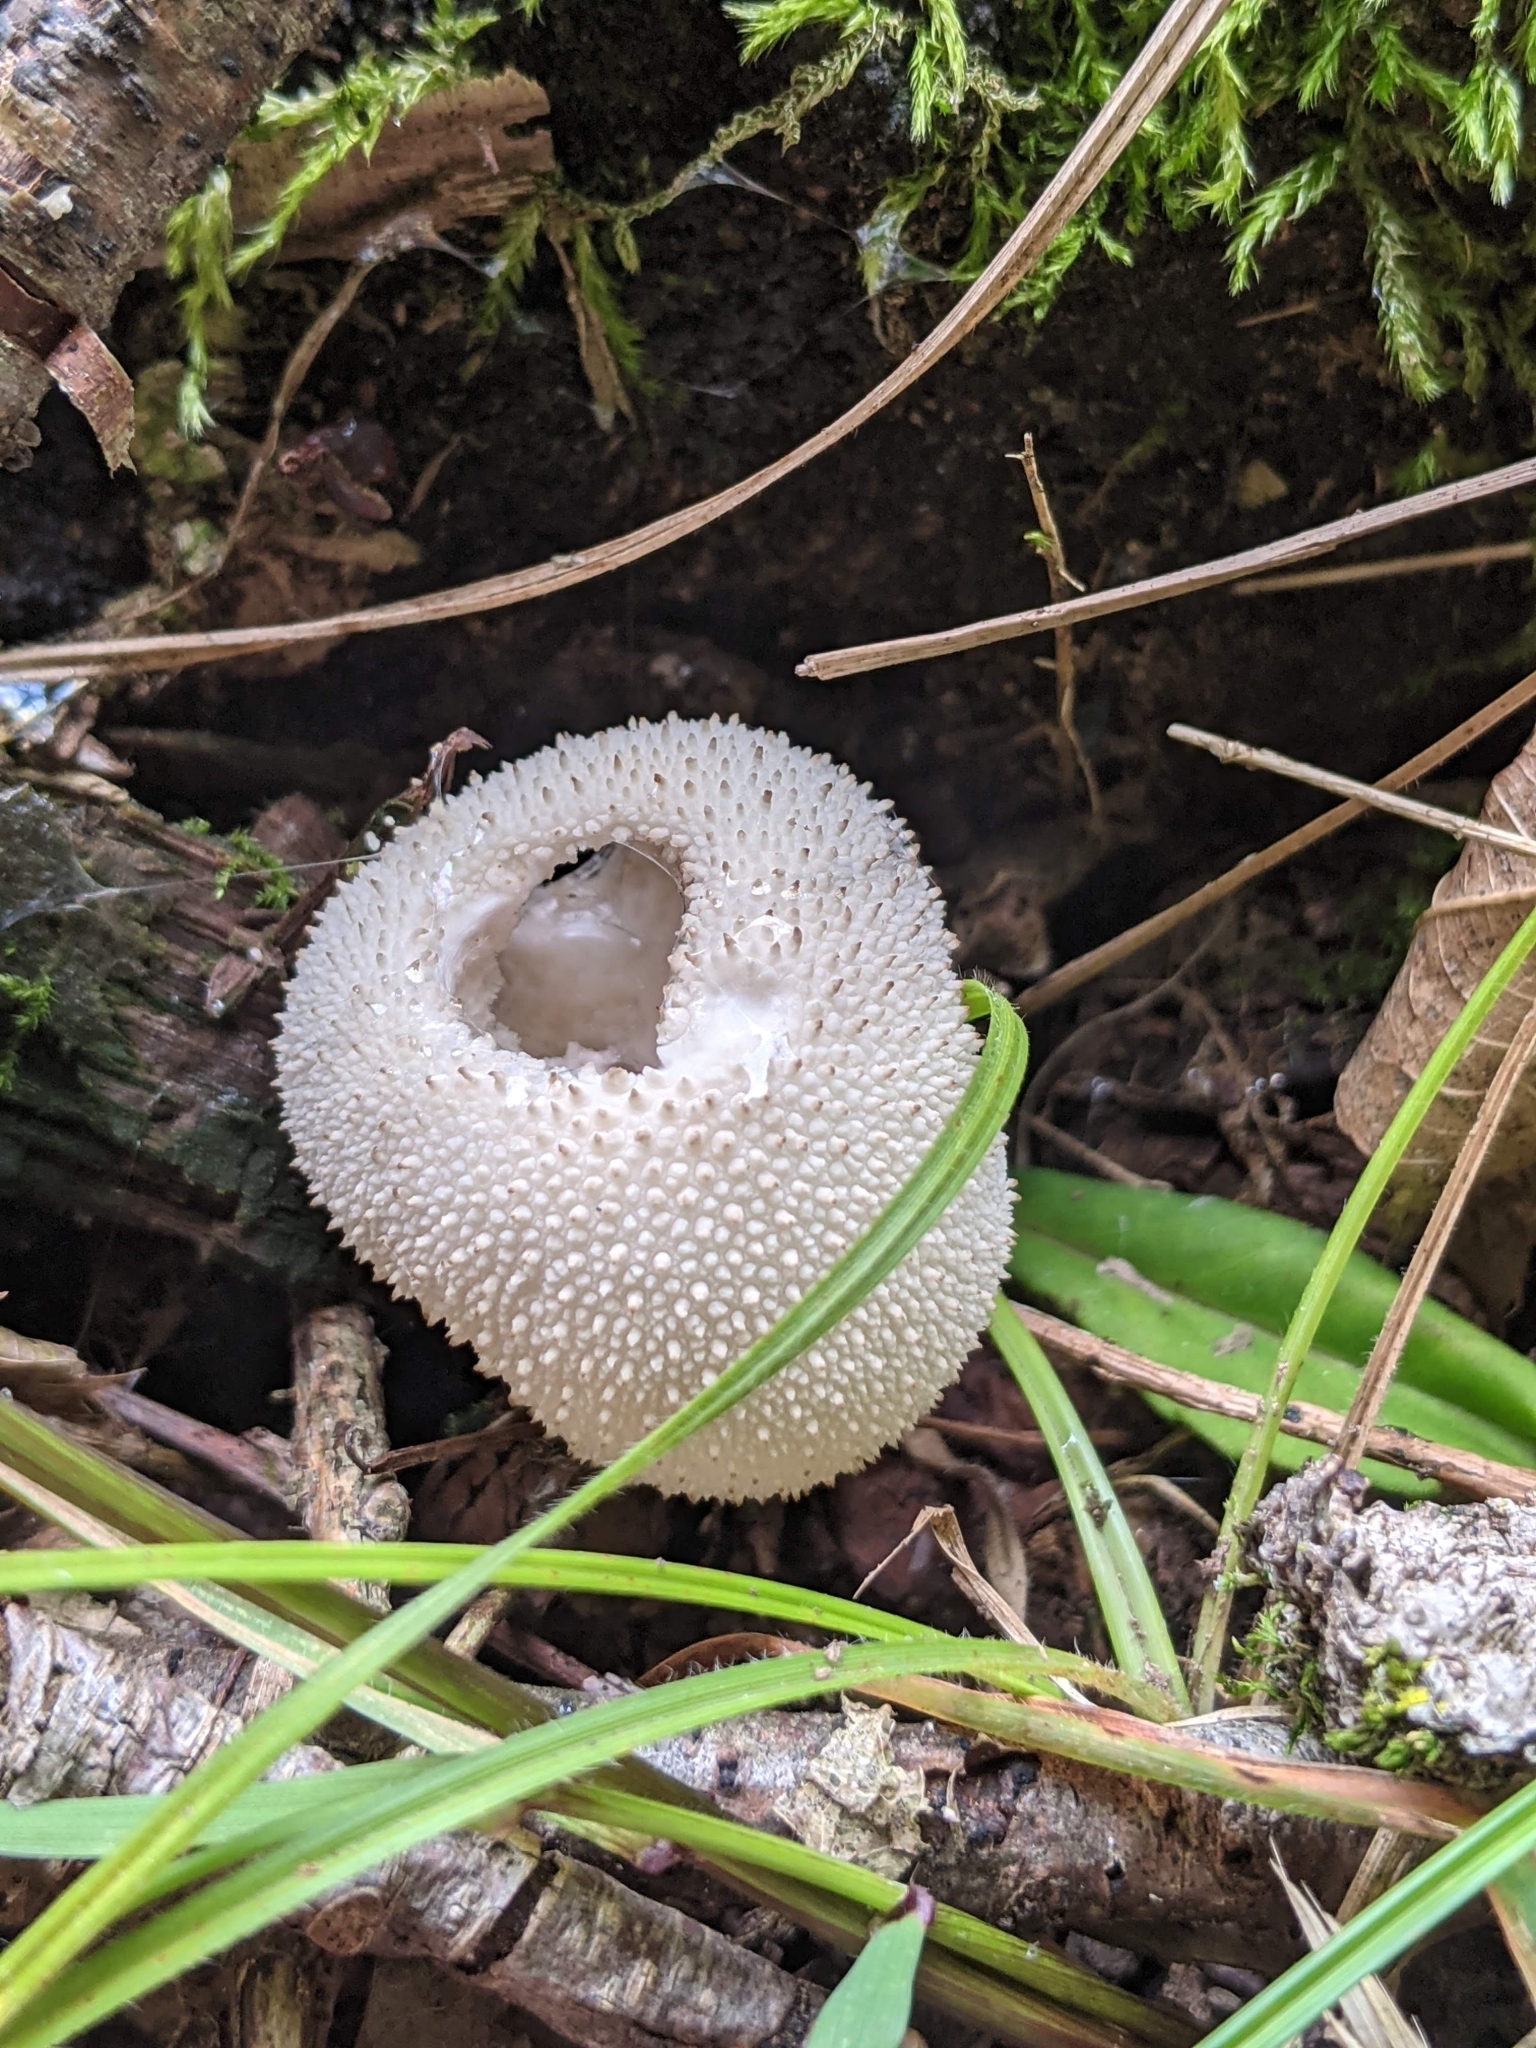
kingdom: Fungi
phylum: Basidiomycota
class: Agaricomycetes
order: Agaricales
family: Lycoperdaceae
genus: Lycoperdon
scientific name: Lycoperdon perlatum
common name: Common puffball
